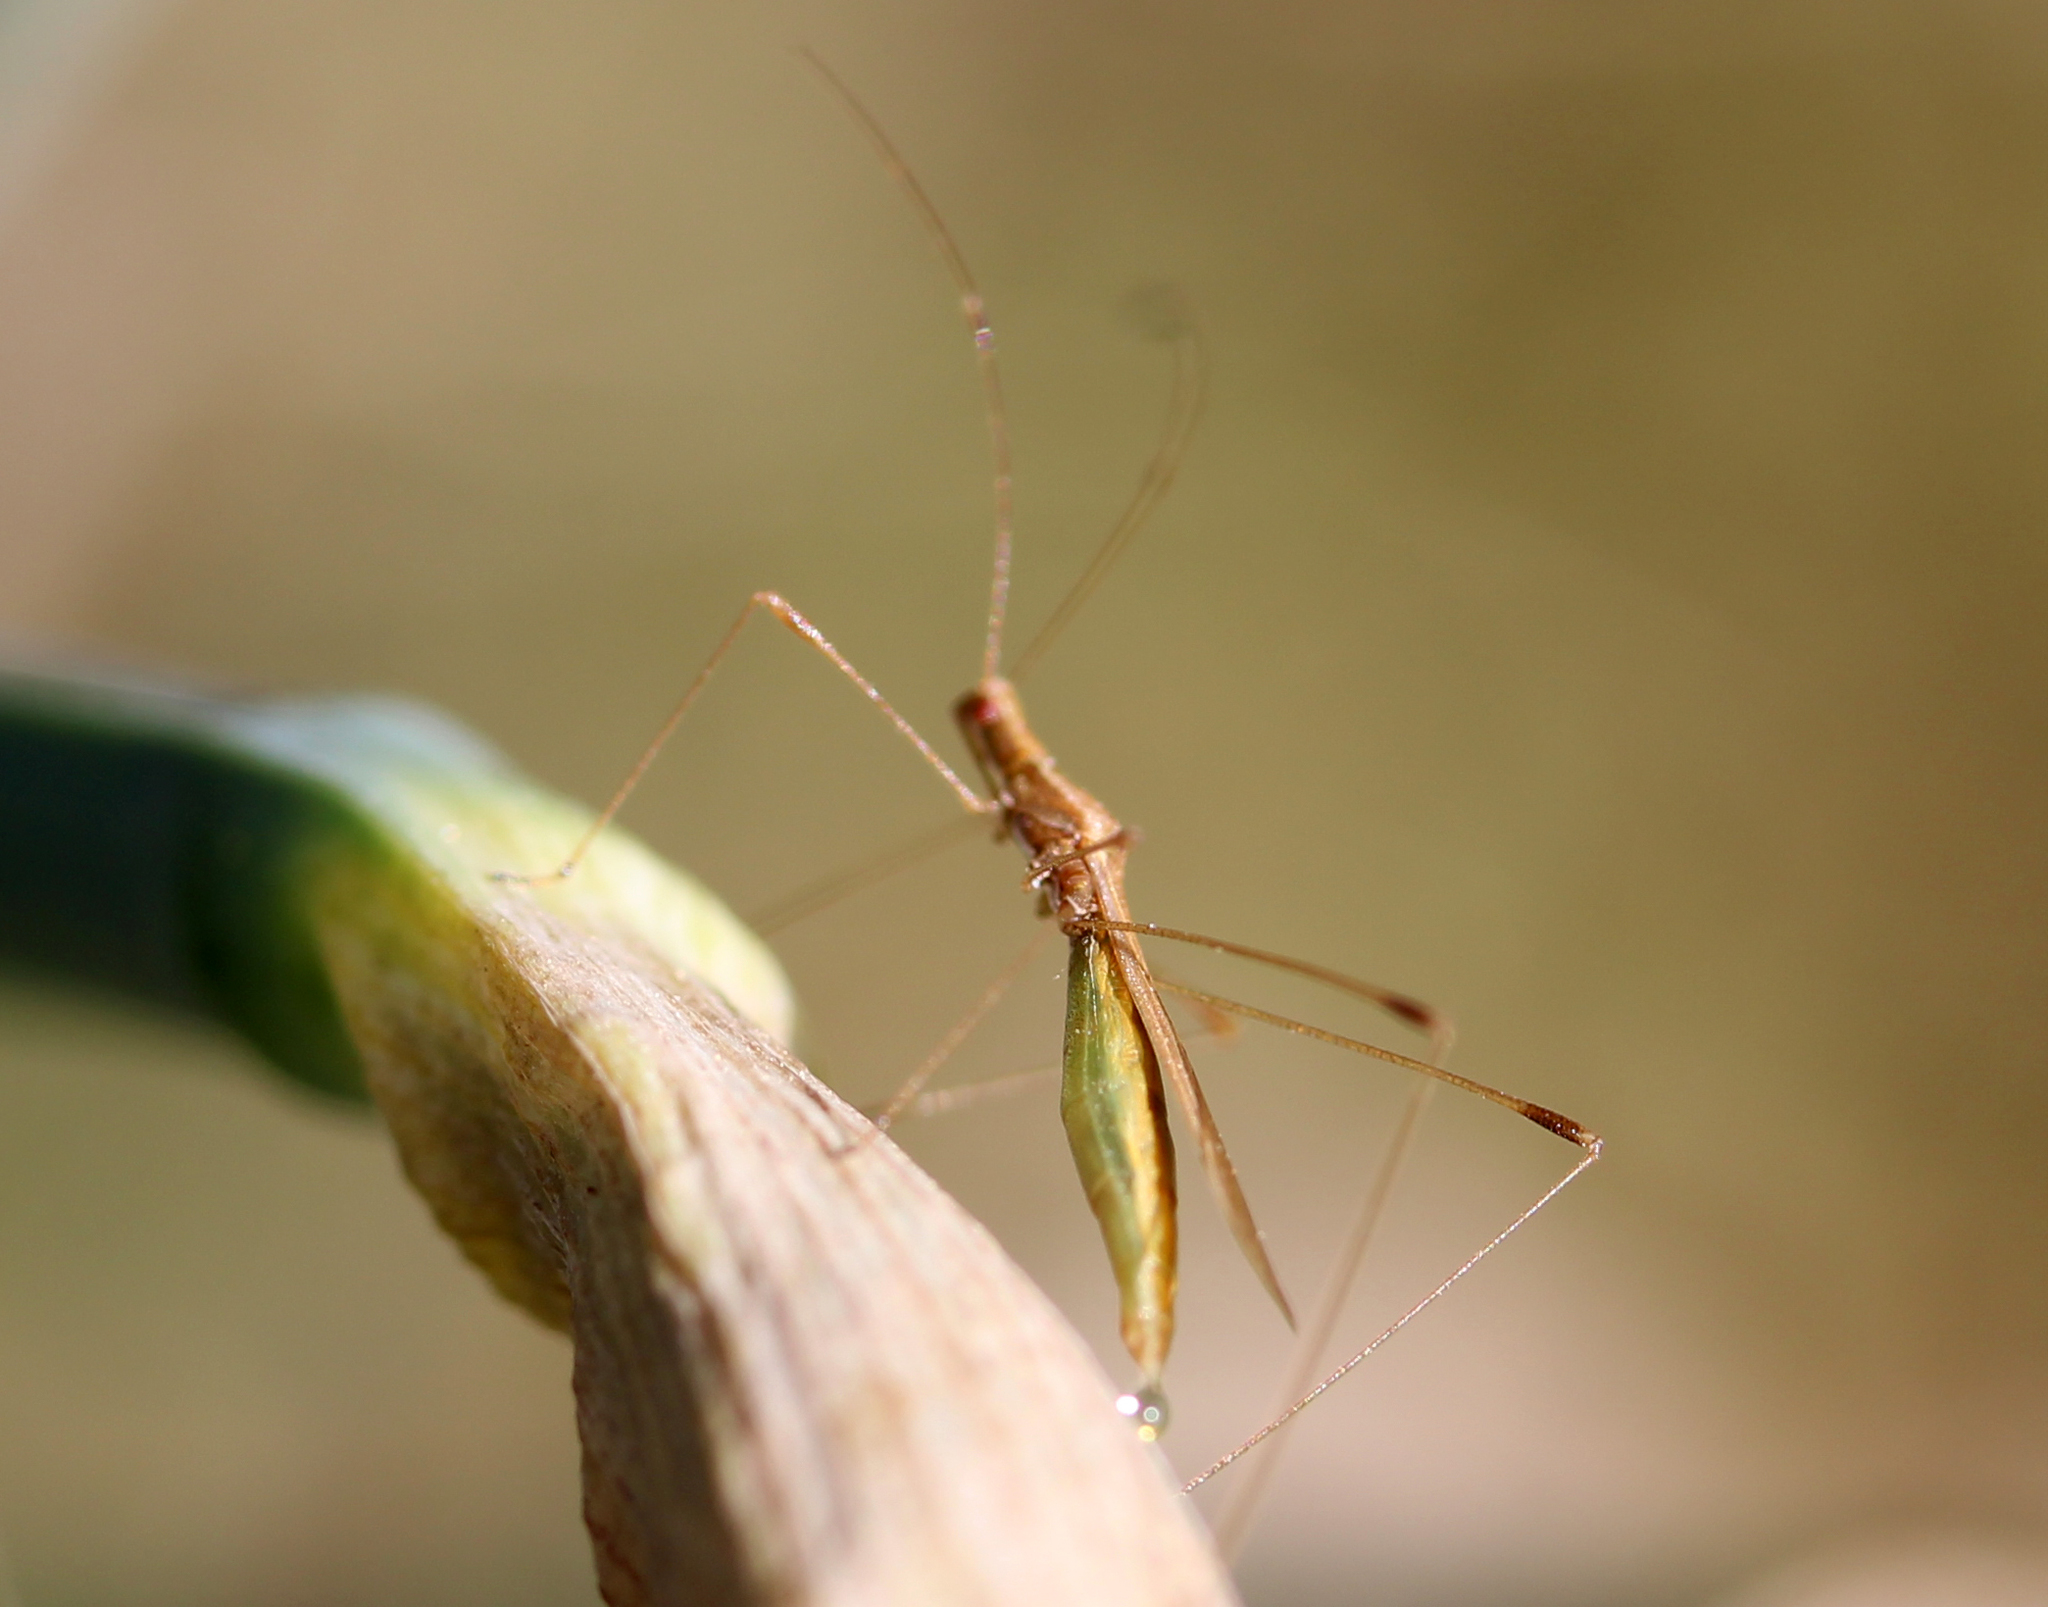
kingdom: Animalia
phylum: Arthropoda
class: Insecta
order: Hemiptera
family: Berytidae
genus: Neoneides
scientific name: Neoneides muticus
